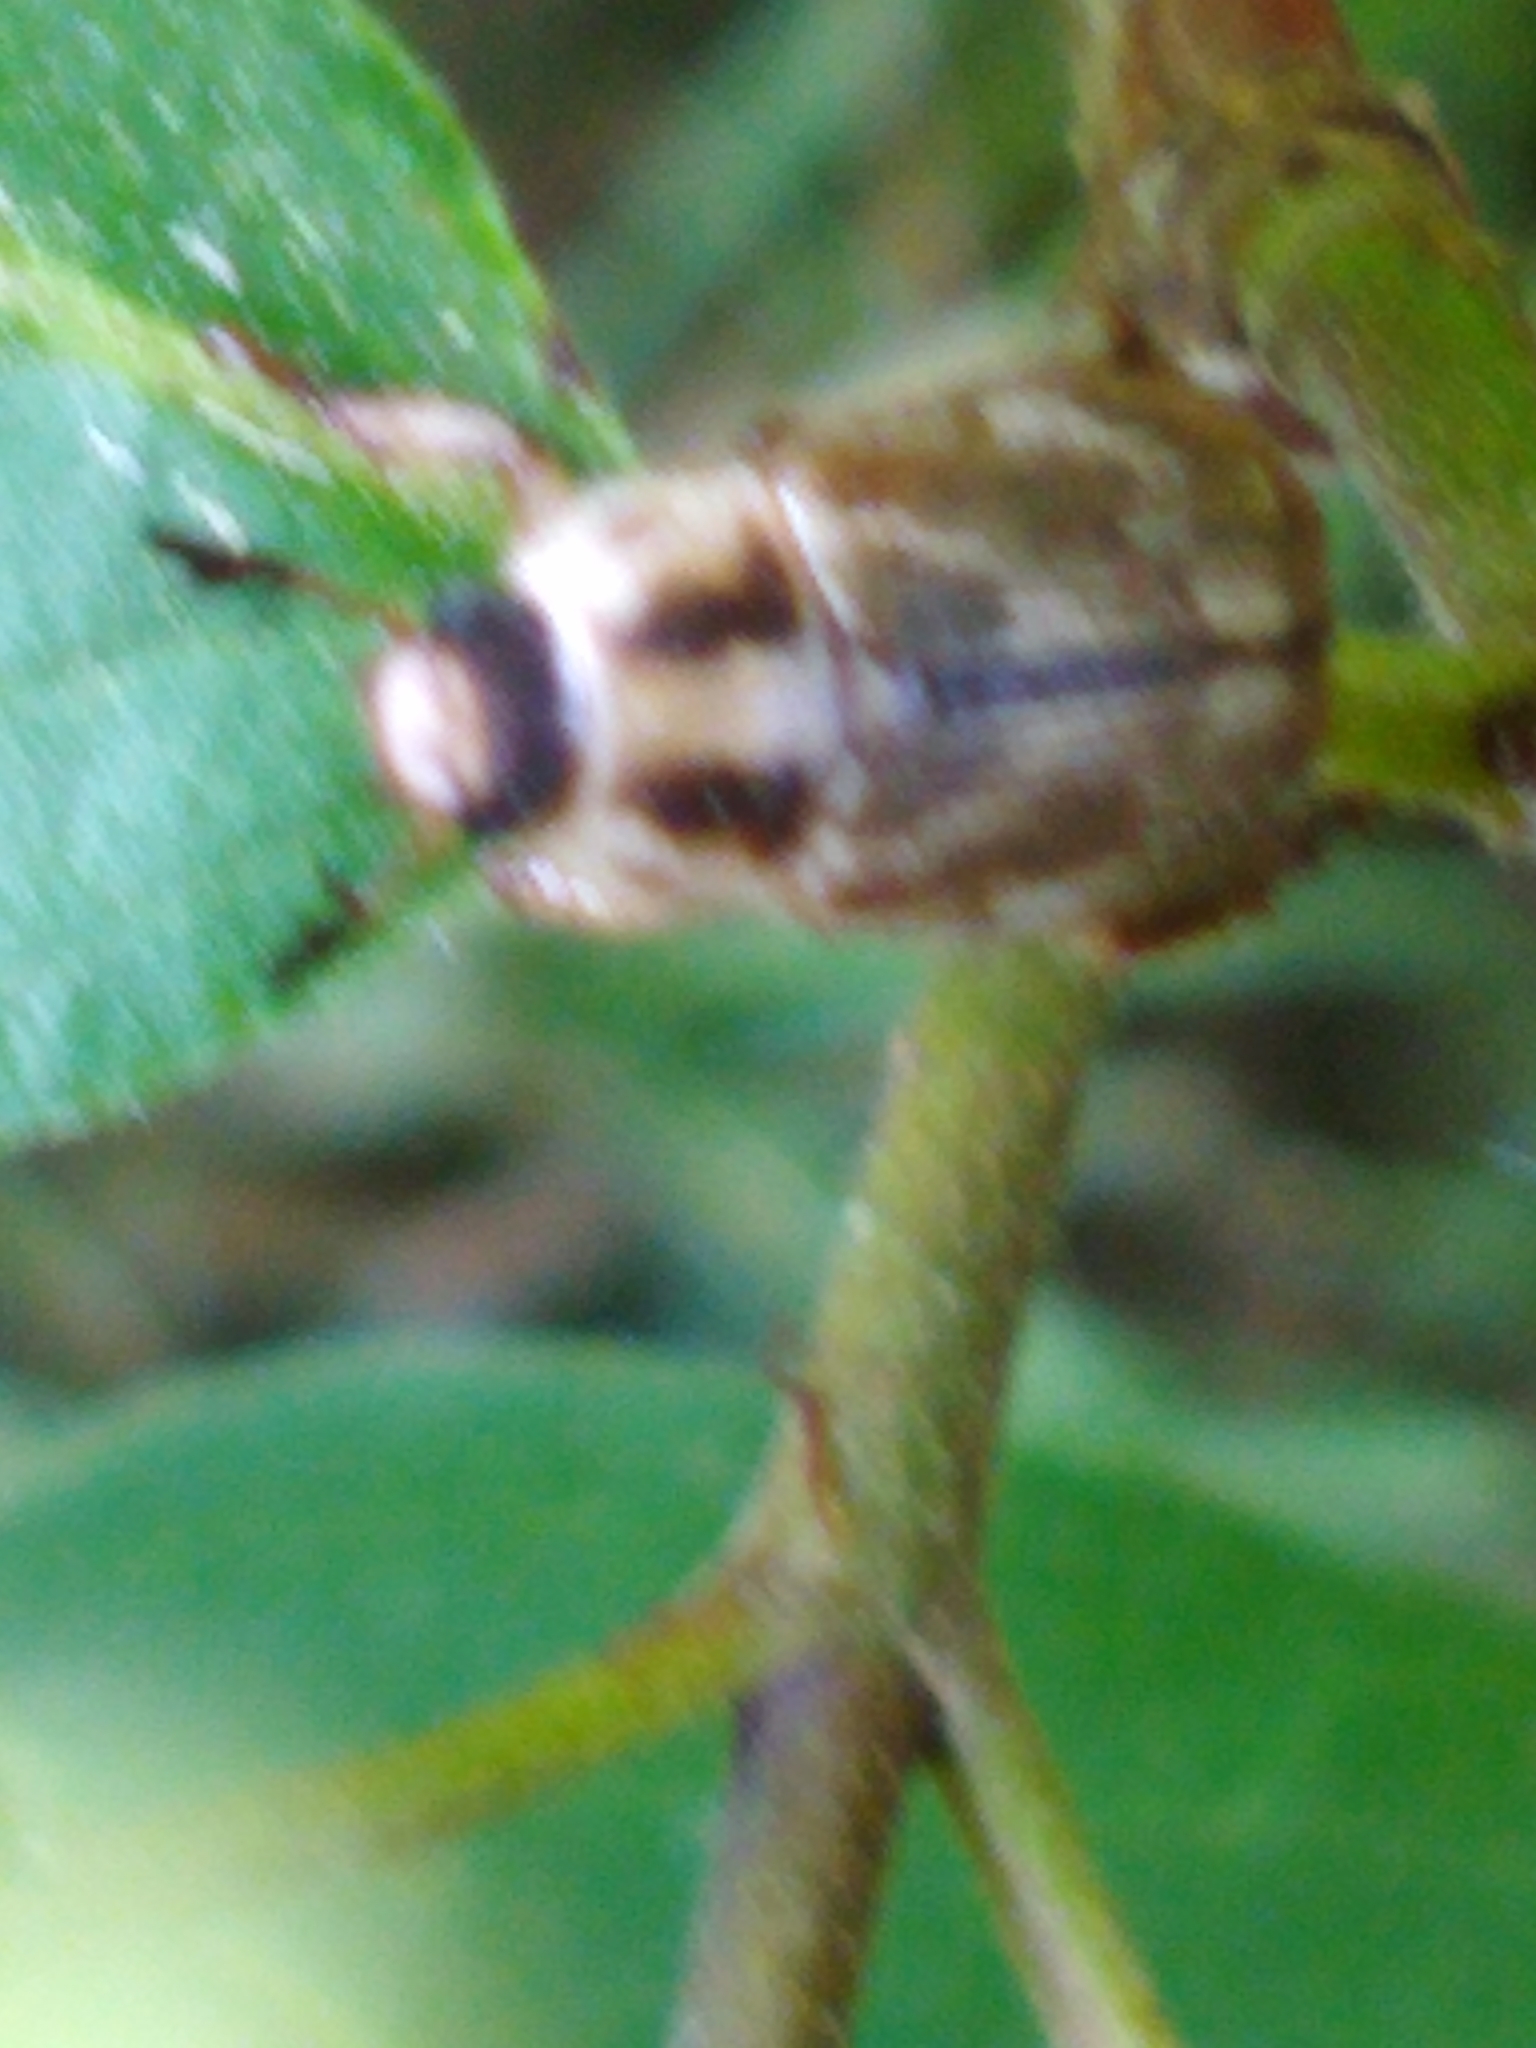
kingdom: Animalia
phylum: Arthropoda
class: Insecta
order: Coleoptera
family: Scarabaeidae
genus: Exomala
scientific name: Exomala orientalis
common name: Oriental beetle
